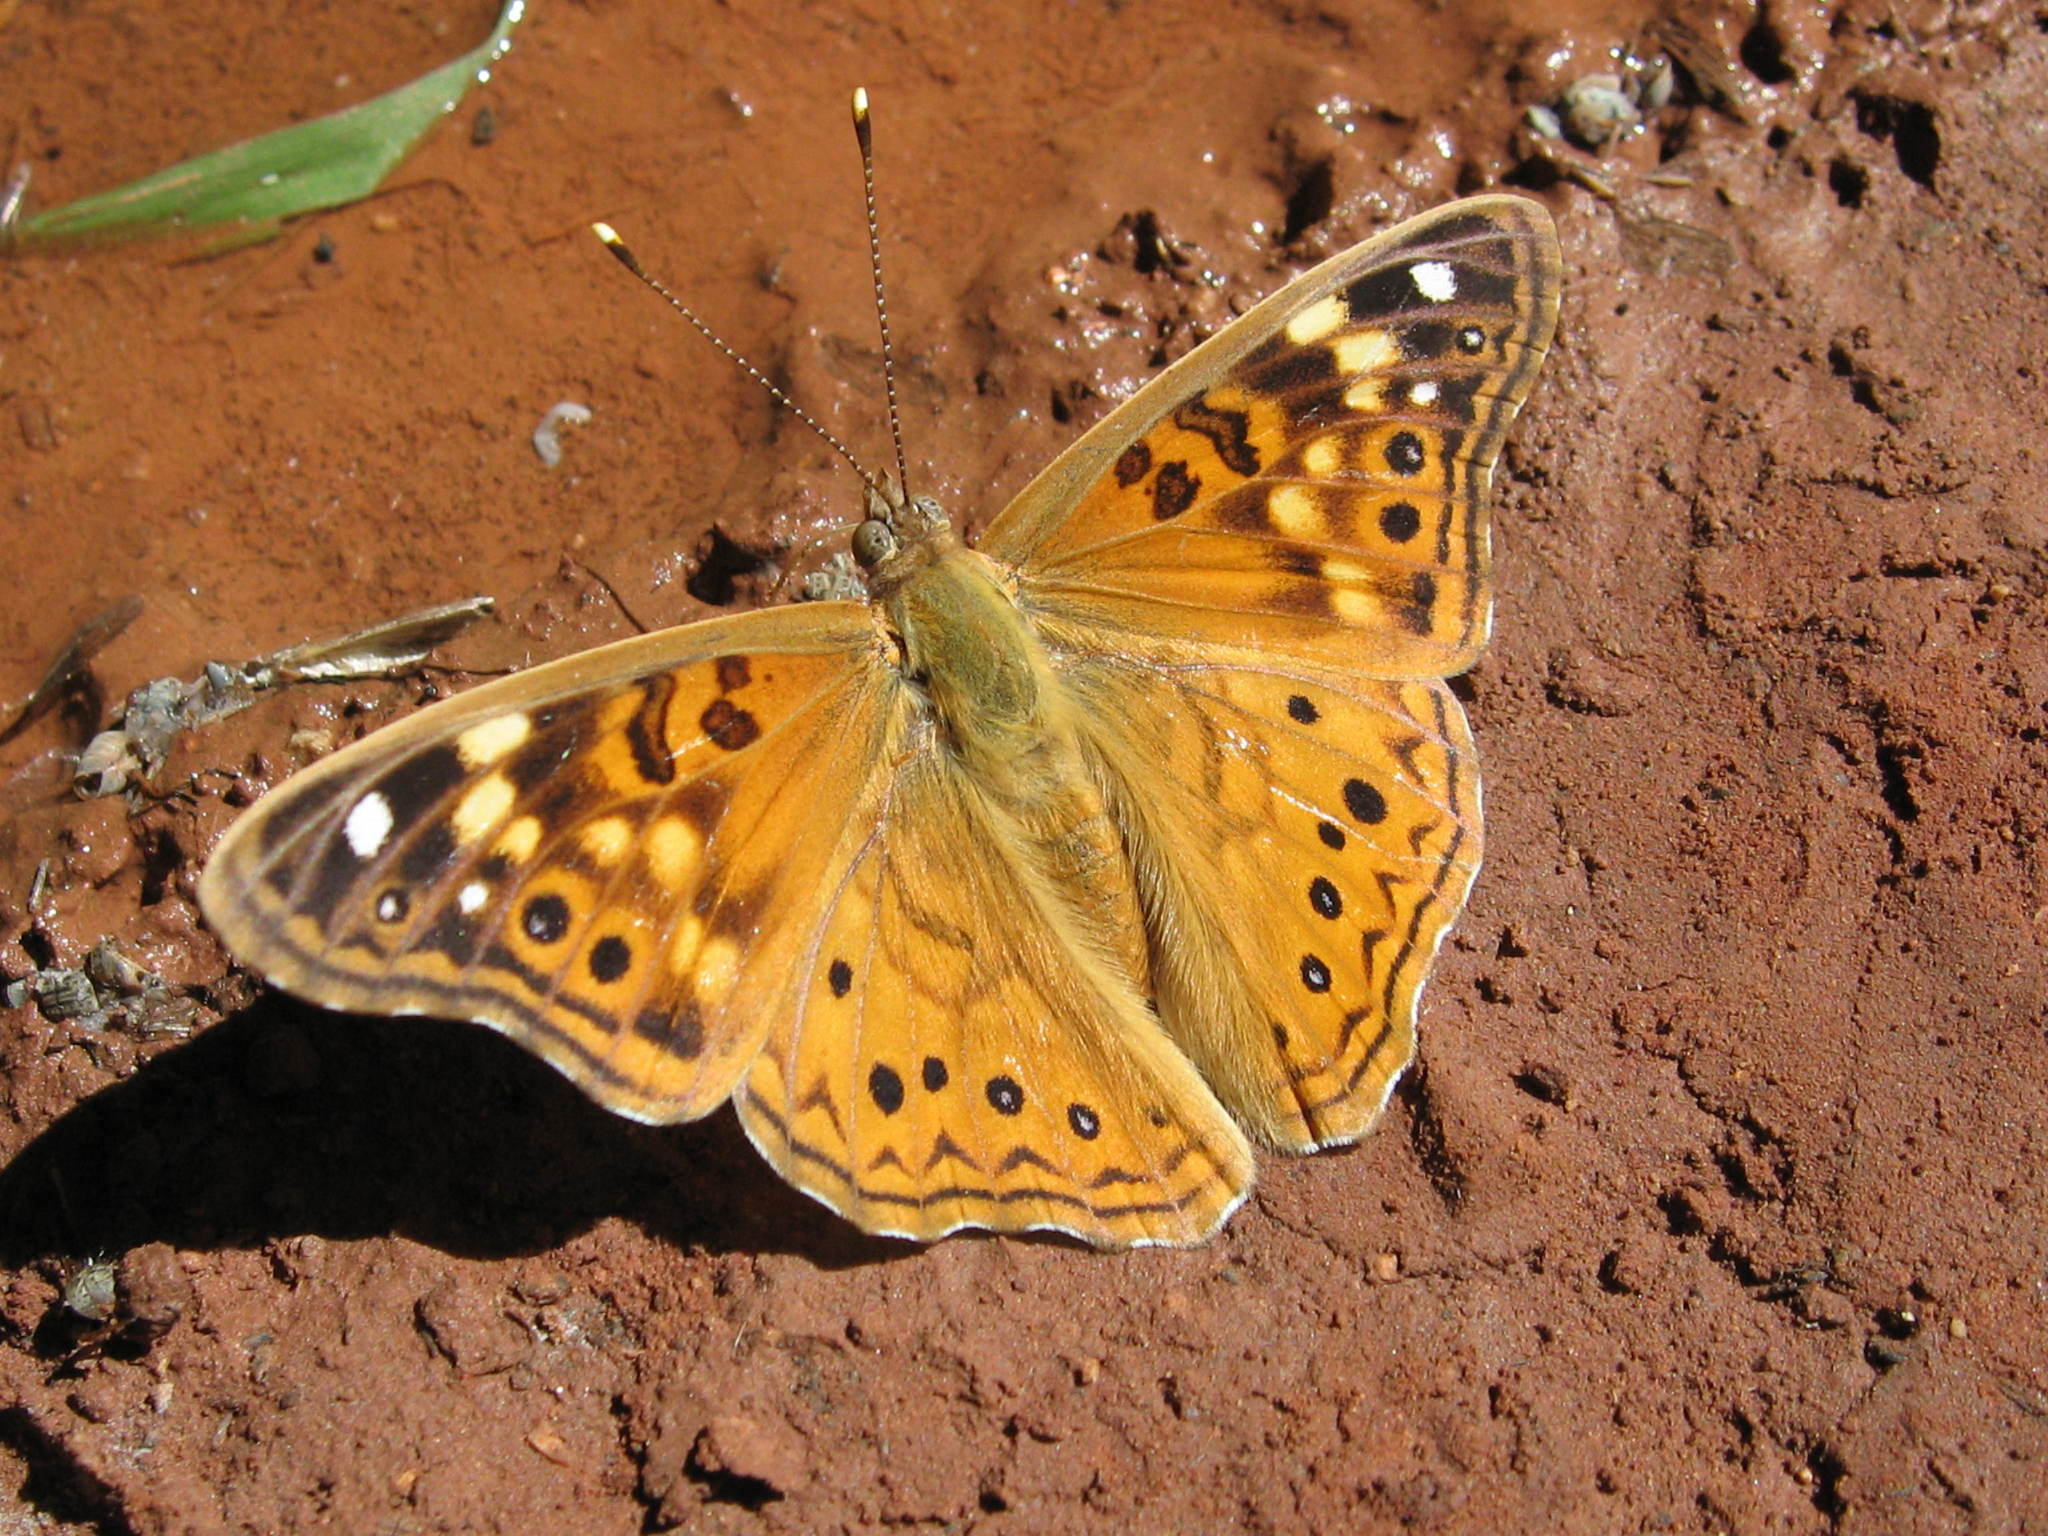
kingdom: Animalia
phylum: Arthropoda
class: Insecta
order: Lepidoptera
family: Nymphalidae
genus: Asterocampa
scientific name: Asterocampa celtis
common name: Hackberry emperor
